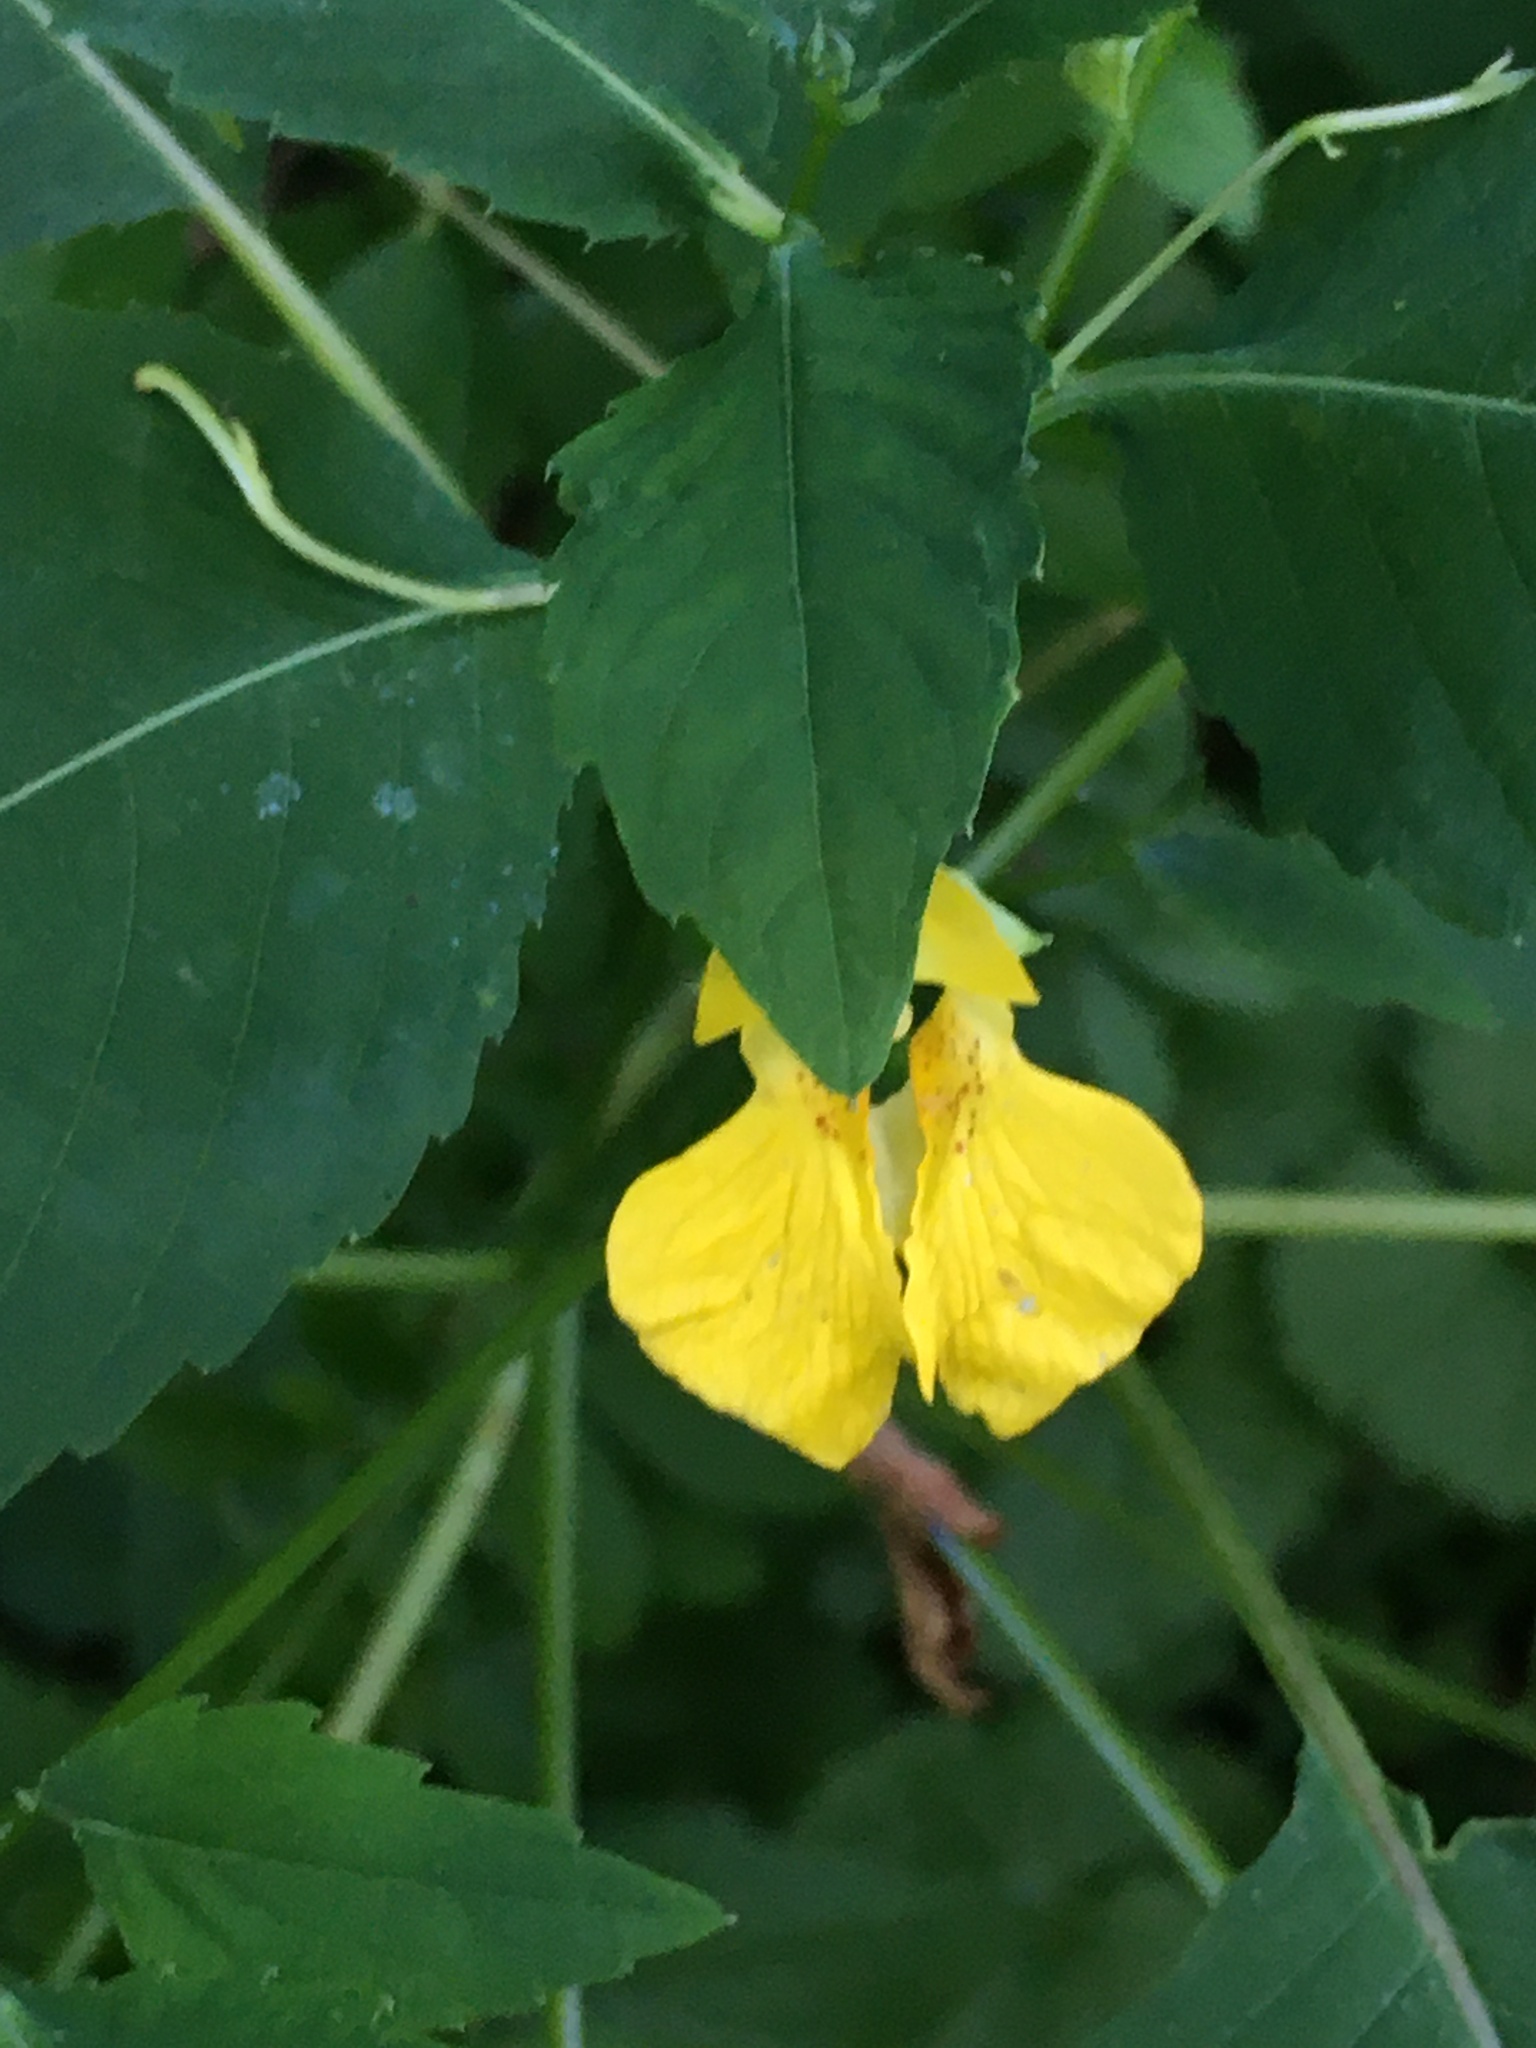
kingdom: Plantae
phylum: Tracheophyta
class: Magnoliopsida
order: Ericales
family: Balsaminaceae
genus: Impatiens
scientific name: Impatiens pallida
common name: Pale snapweed
